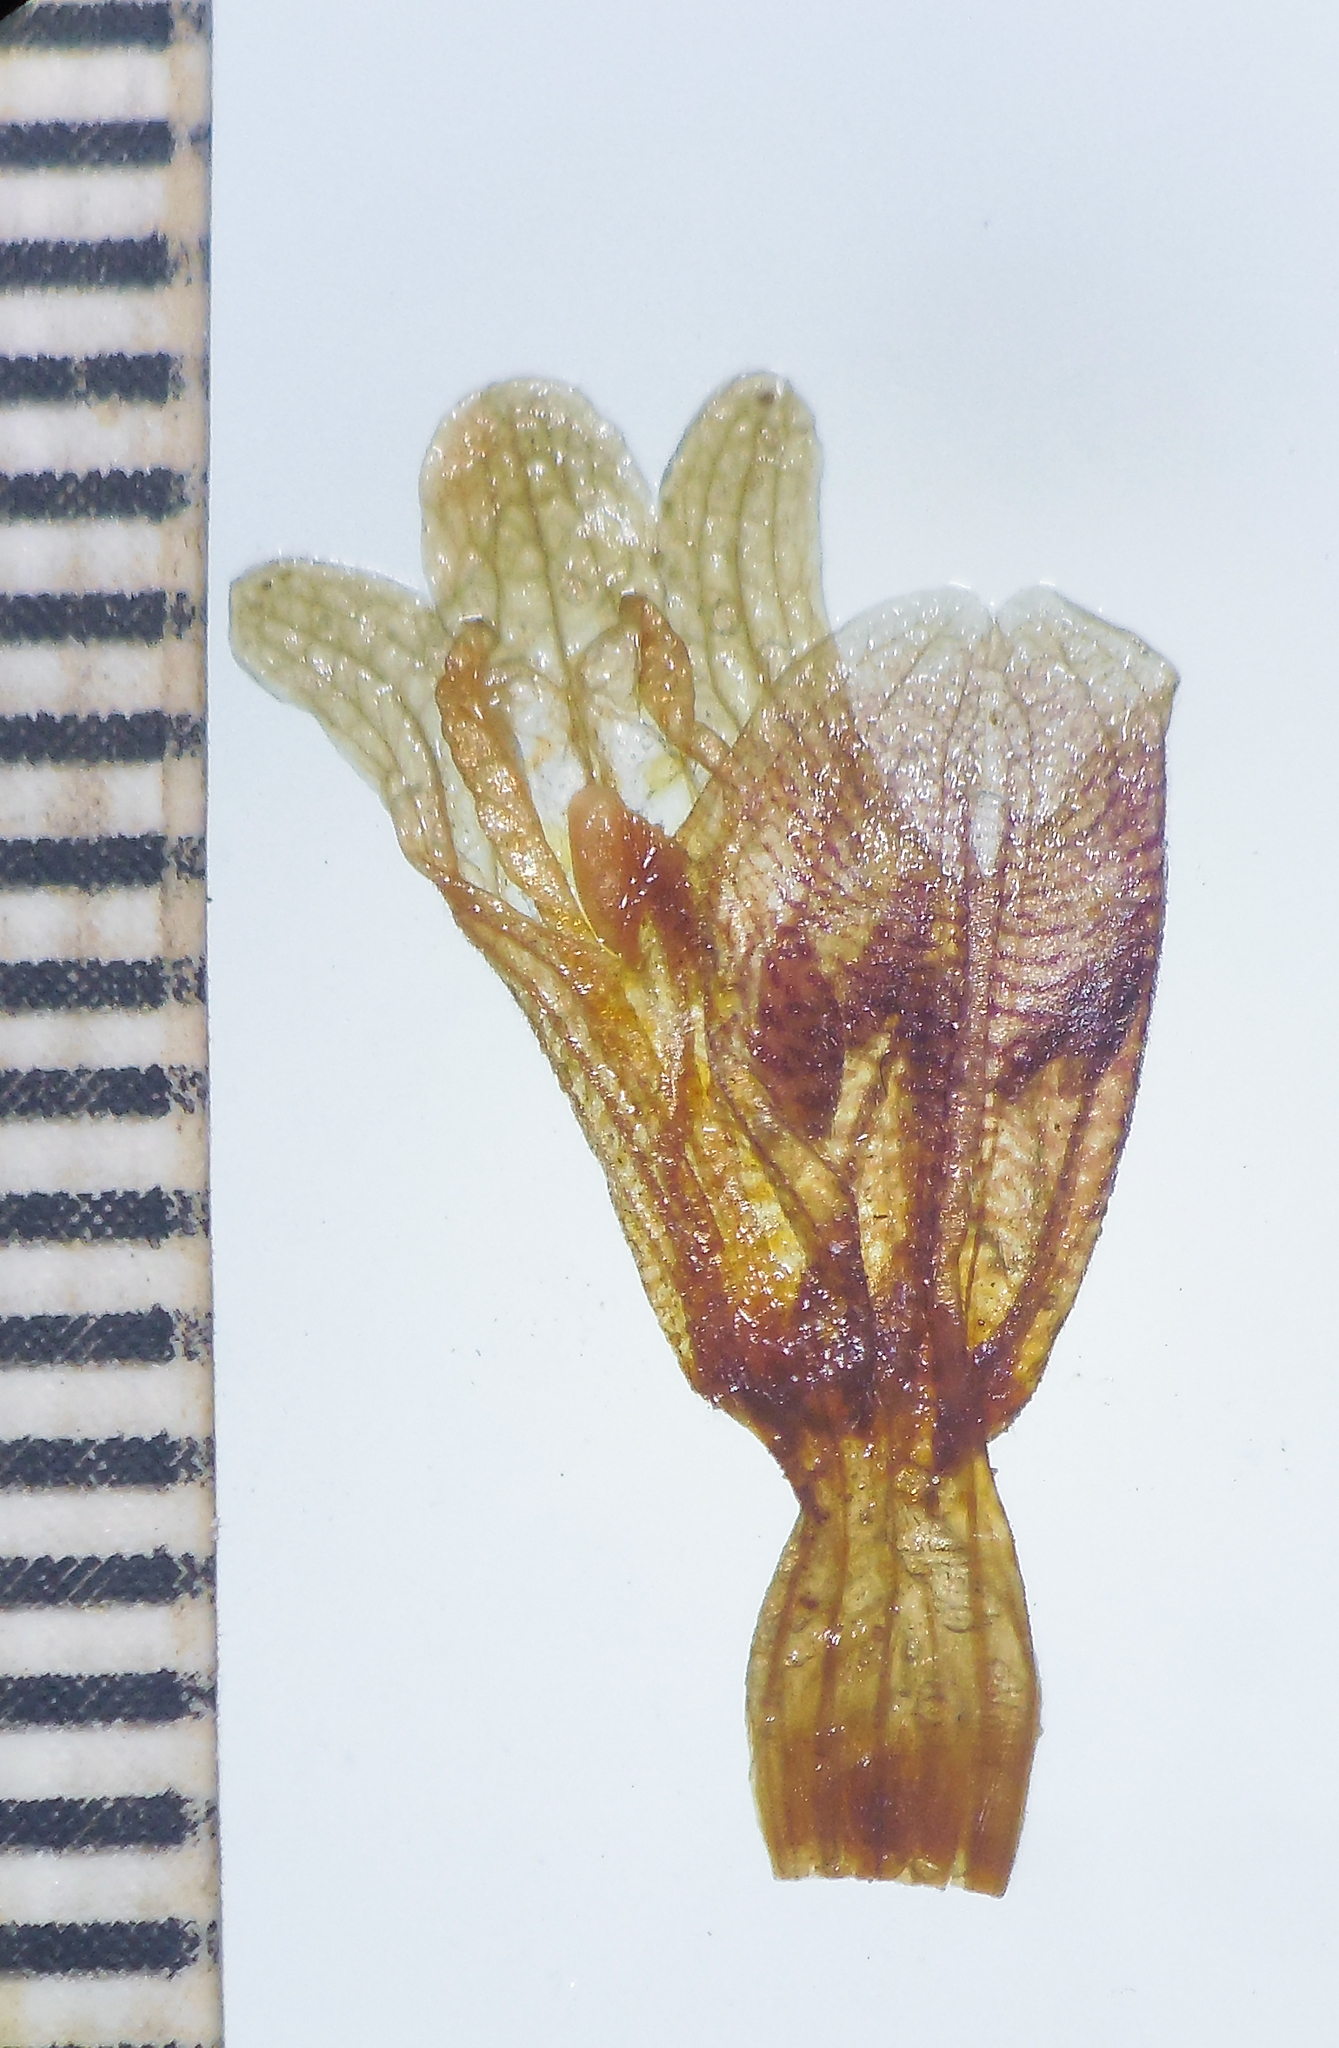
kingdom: Plantae
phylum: Tracheophyta
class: Magnoliopsida
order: Lamiales
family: Acanthaceae
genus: Lepidagathis
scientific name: Lepidagathis rigida
